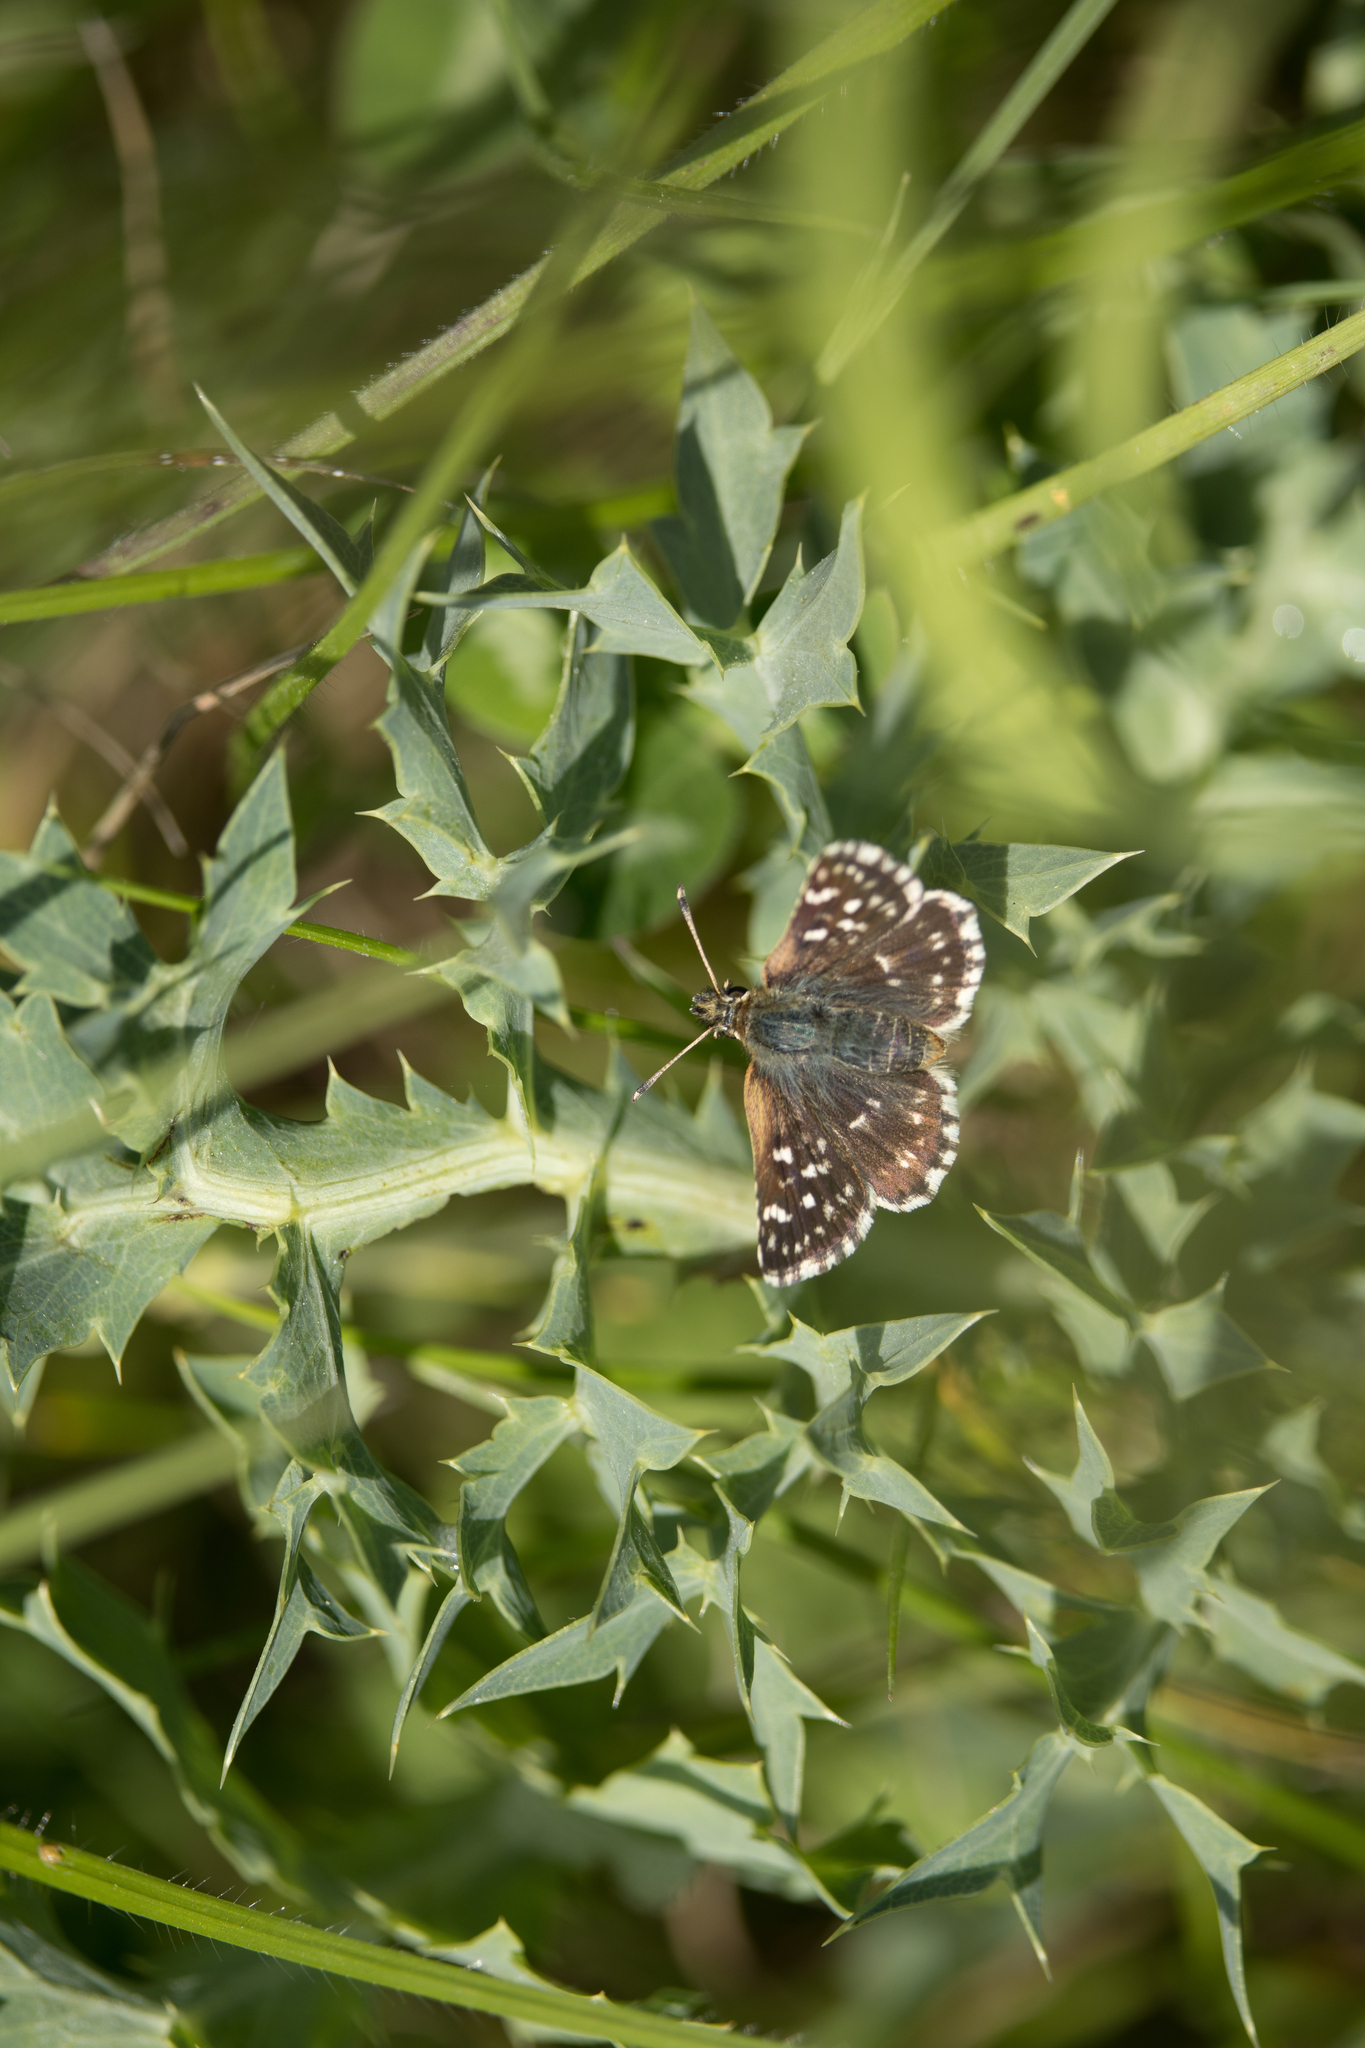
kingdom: Animalia
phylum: Arthropoda
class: Insecta
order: Lepidoptera
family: Hesperiidae
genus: Spialia
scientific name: Spialia sertorius
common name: Red underwing skipper
